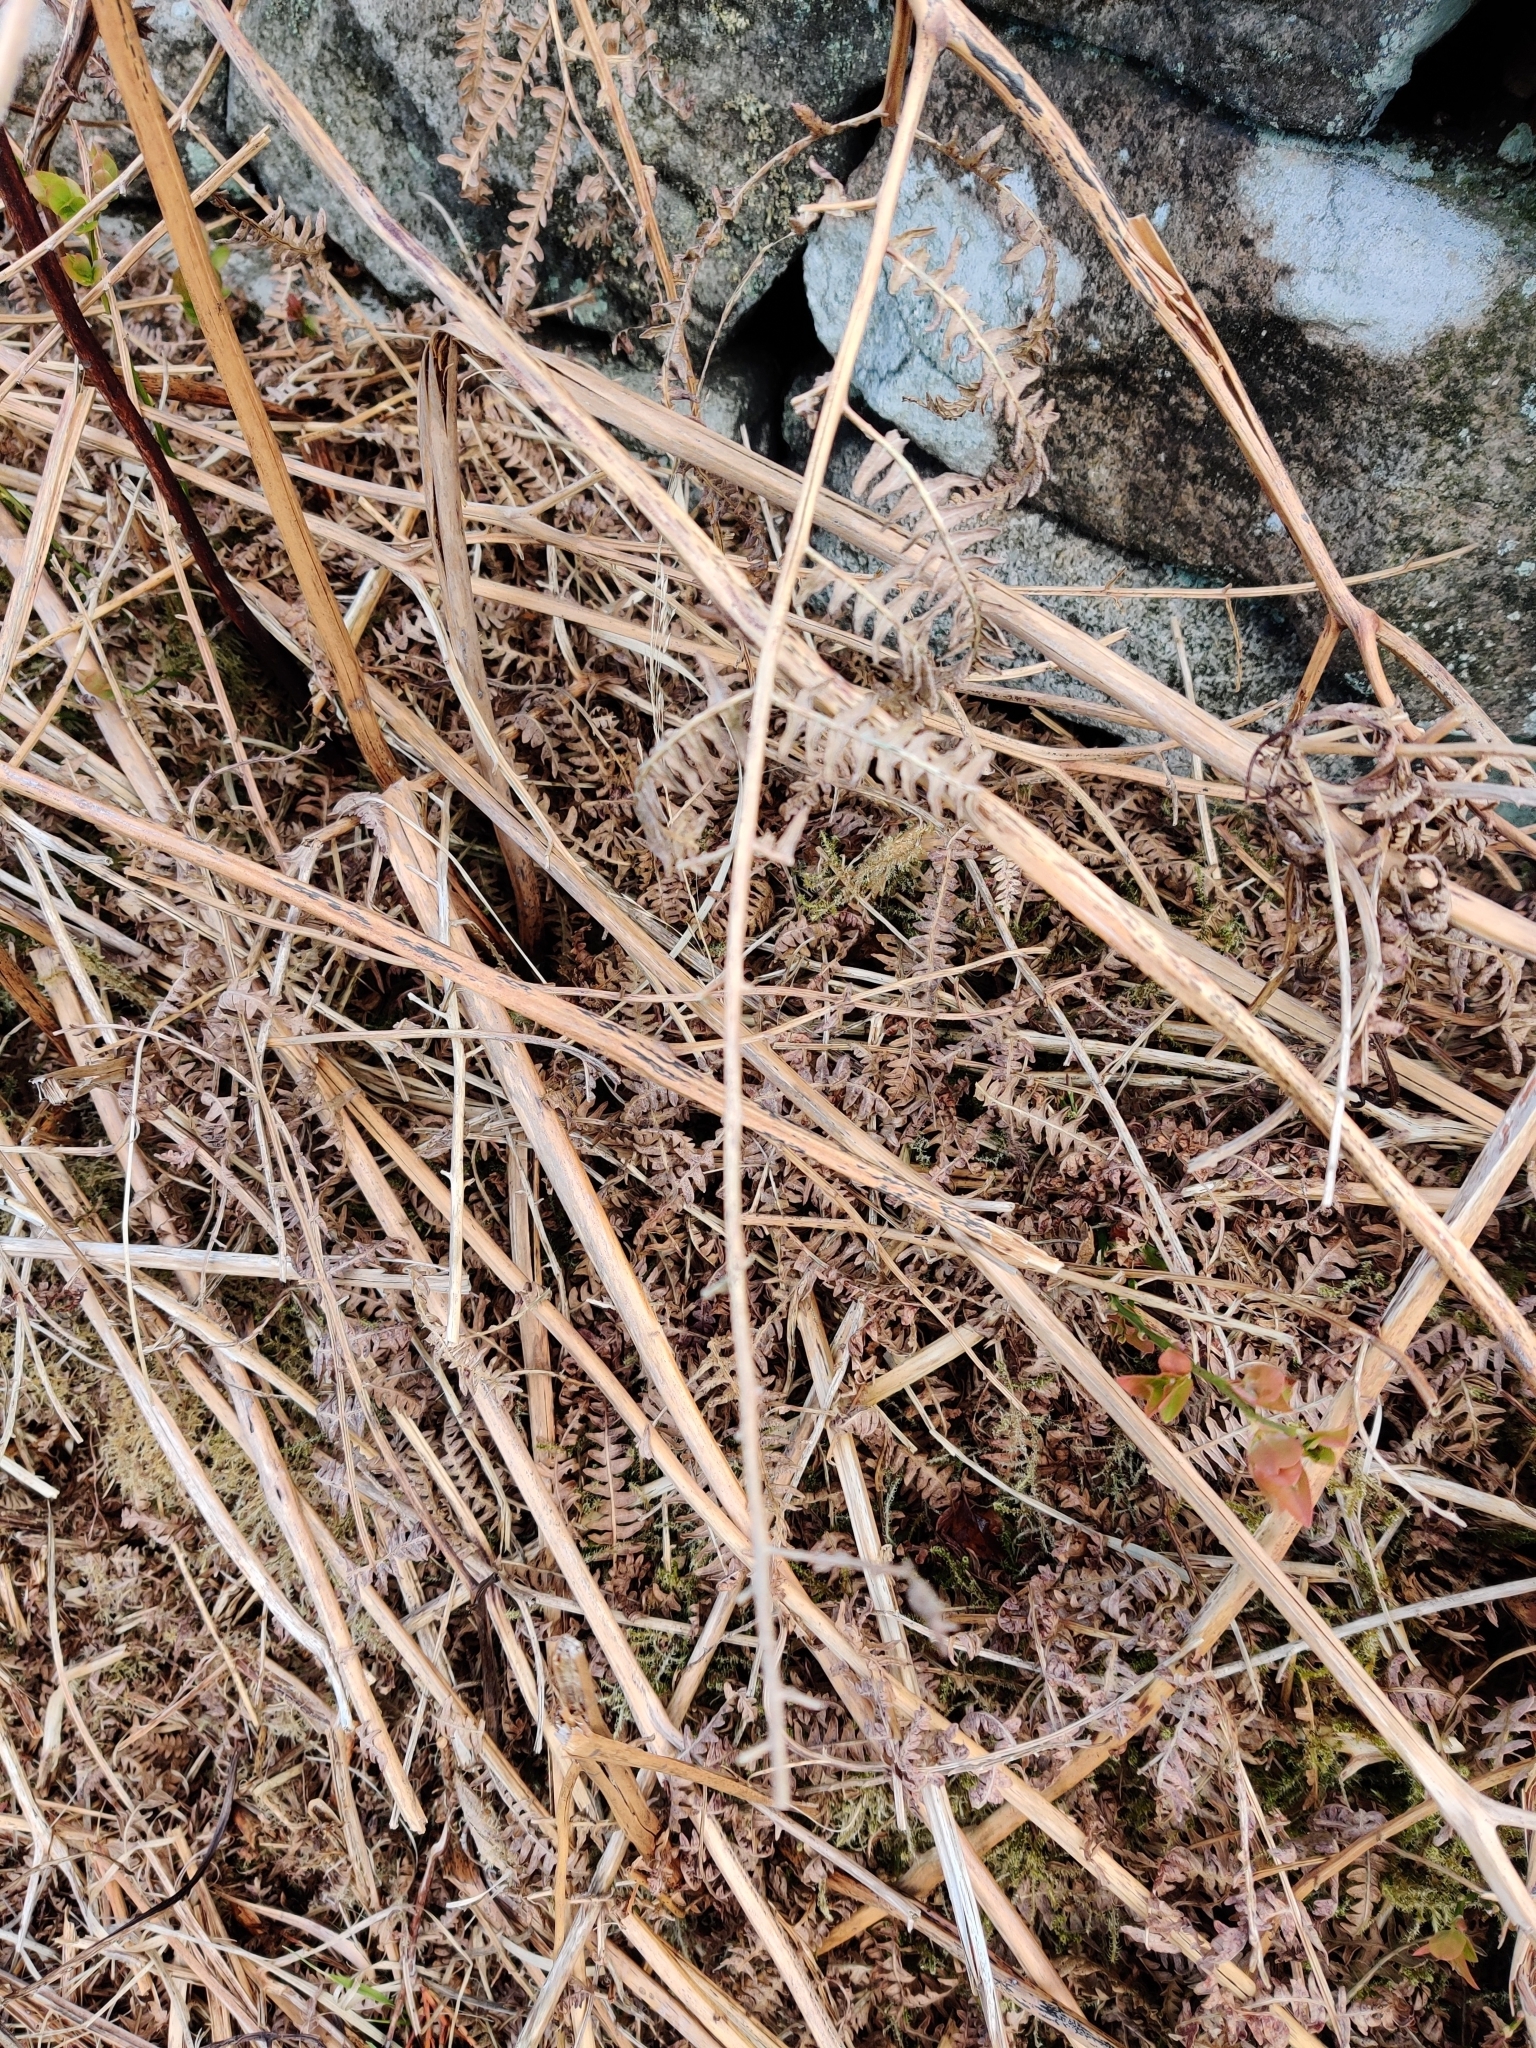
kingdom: Plantae
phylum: Tracheophyta
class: Polypodiopsida
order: Polypodiales
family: Dennstaedtiaceae
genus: Pteridium
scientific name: Pteridium aquilinum
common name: Bracken
